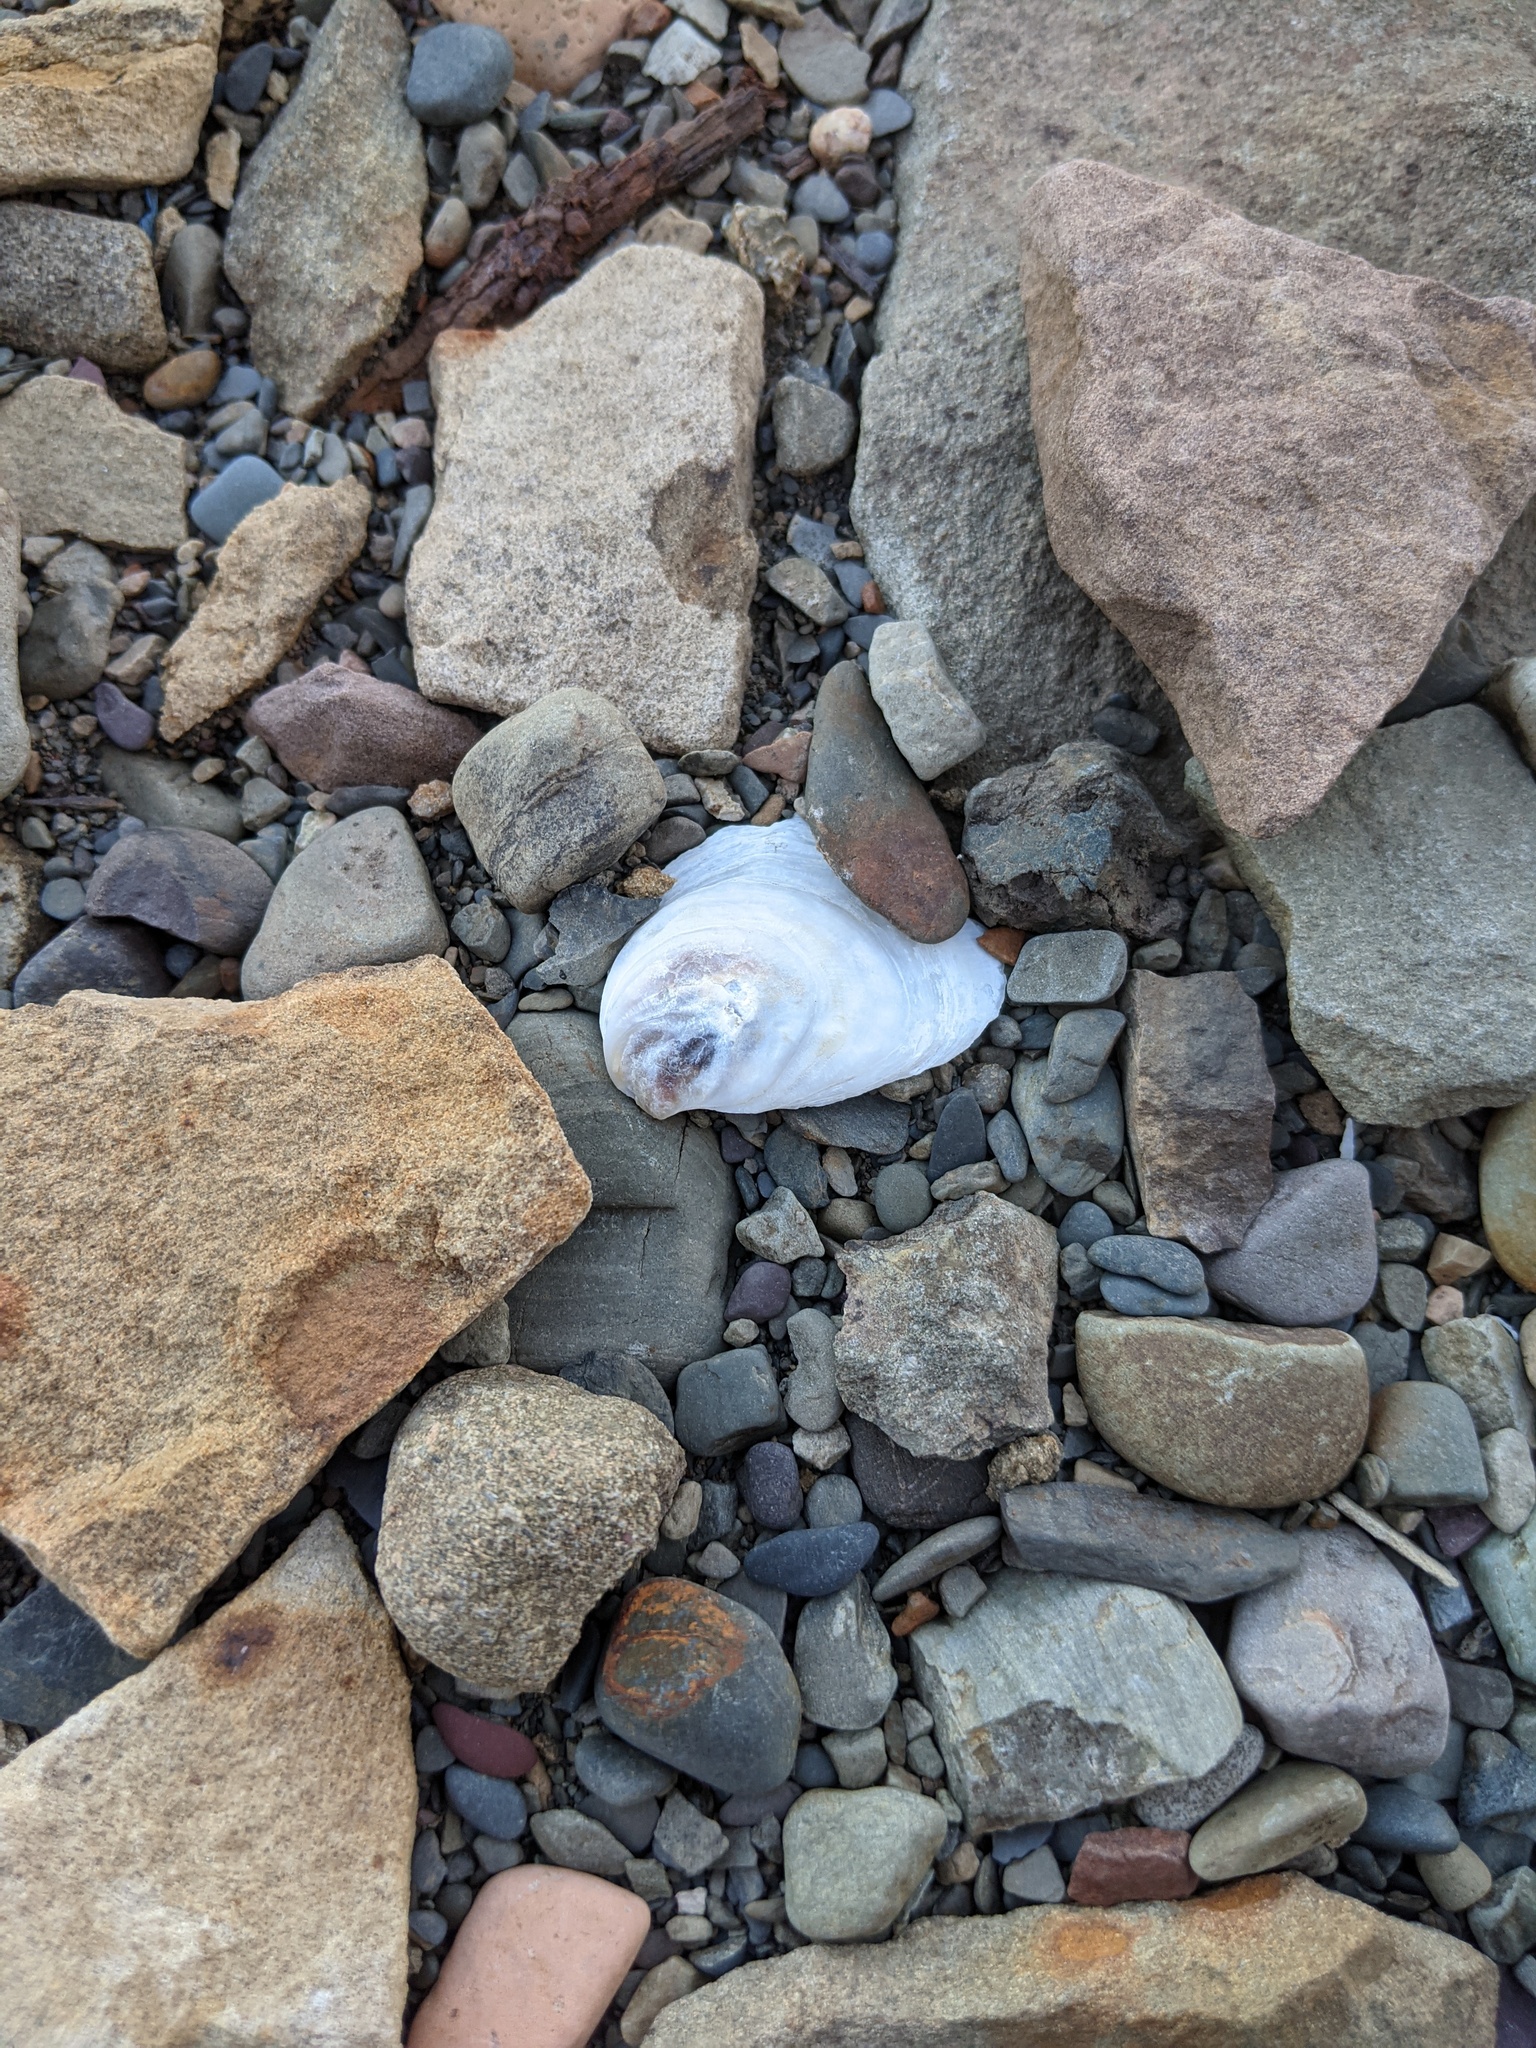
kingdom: Animalia
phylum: Mollusca
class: Bivalvia
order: Ostreida
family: Ostreidae
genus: Crassostrea
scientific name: Crassostrea virginica
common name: American oyster
